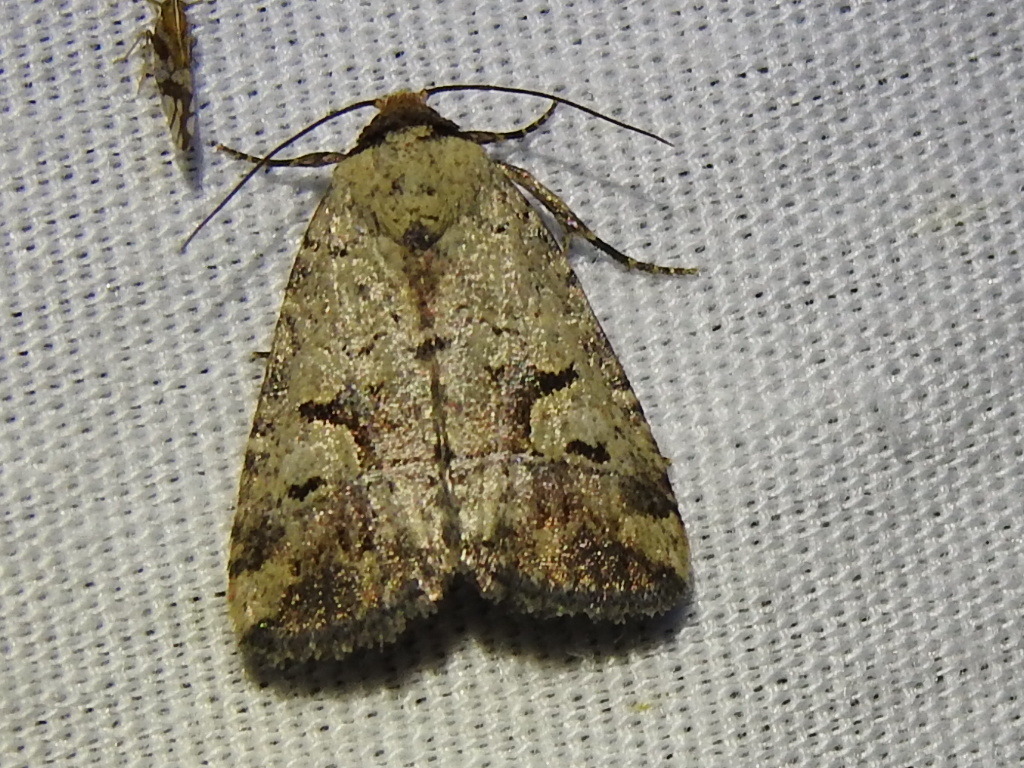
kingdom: Animalia
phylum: Arthropoda
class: Insecta
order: Lepidoptera
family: Noctuidae
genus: Elaphria
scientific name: Elaphria festivoides
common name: Festive midget
